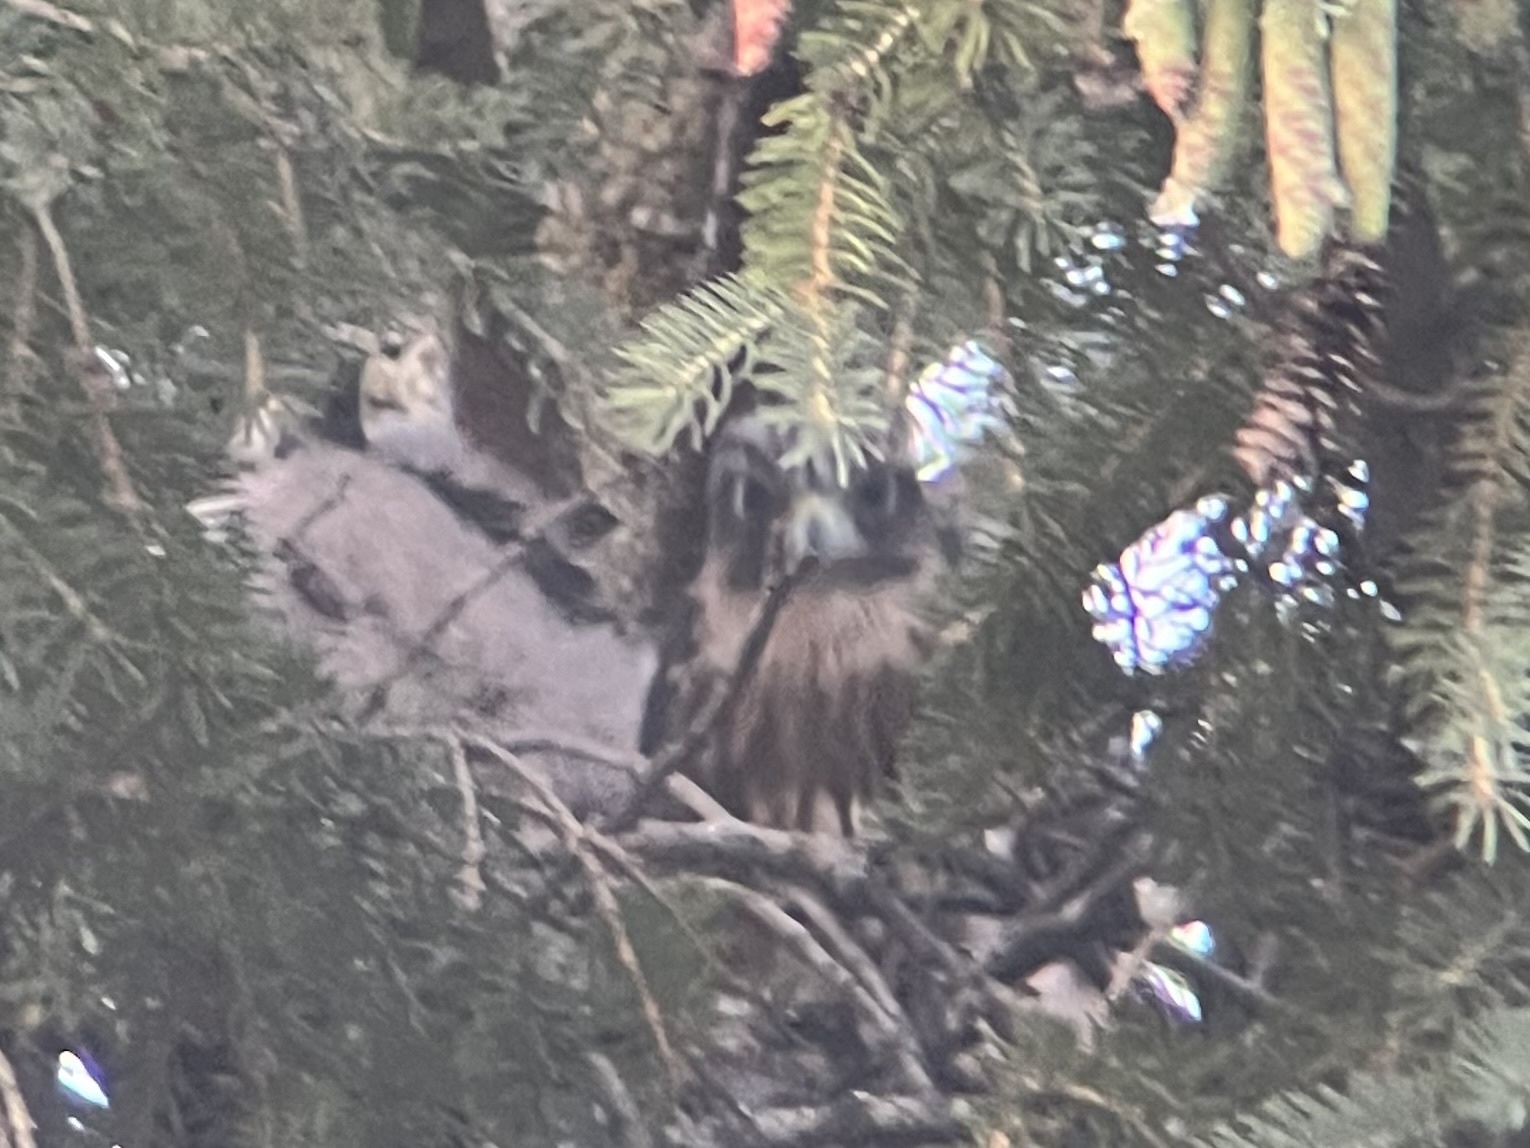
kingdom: Animalia
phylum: Chordata
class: Aves
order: Falconiformes
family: Falconidae
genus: Falco
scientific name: Falco columbarius
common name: Merlin
